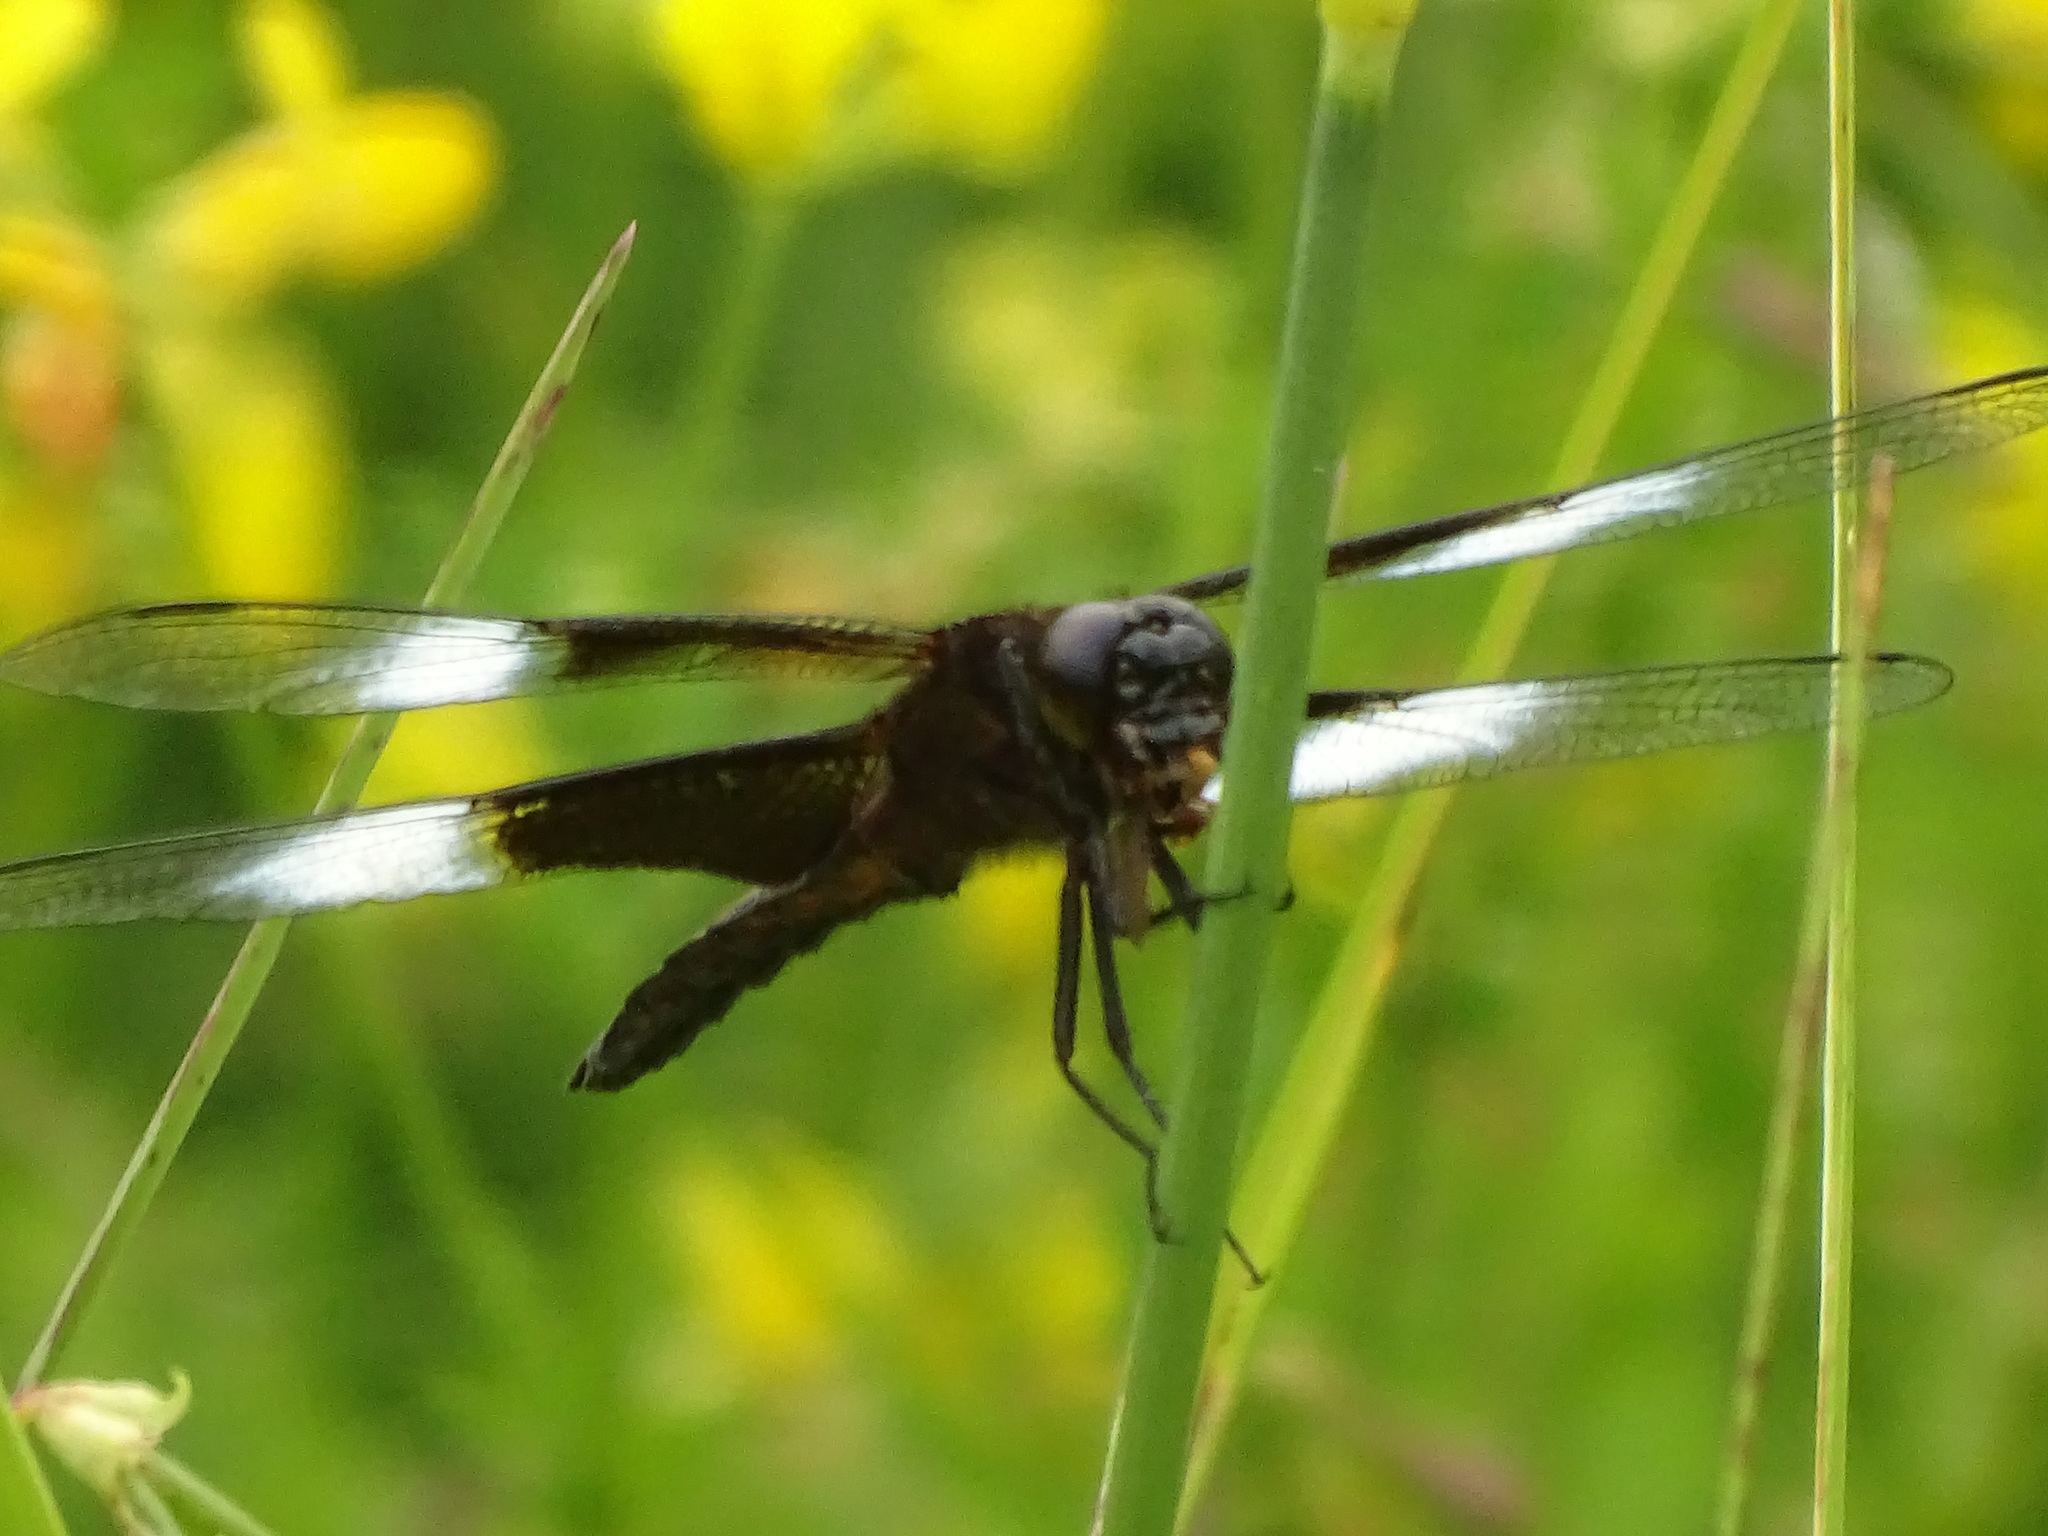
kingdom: Animalia
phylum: Arthropoda
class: Insecta
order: Odonata
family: Libellulidae
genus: Libellula
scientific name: Libellula luctuosa
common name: Widow skimmer
